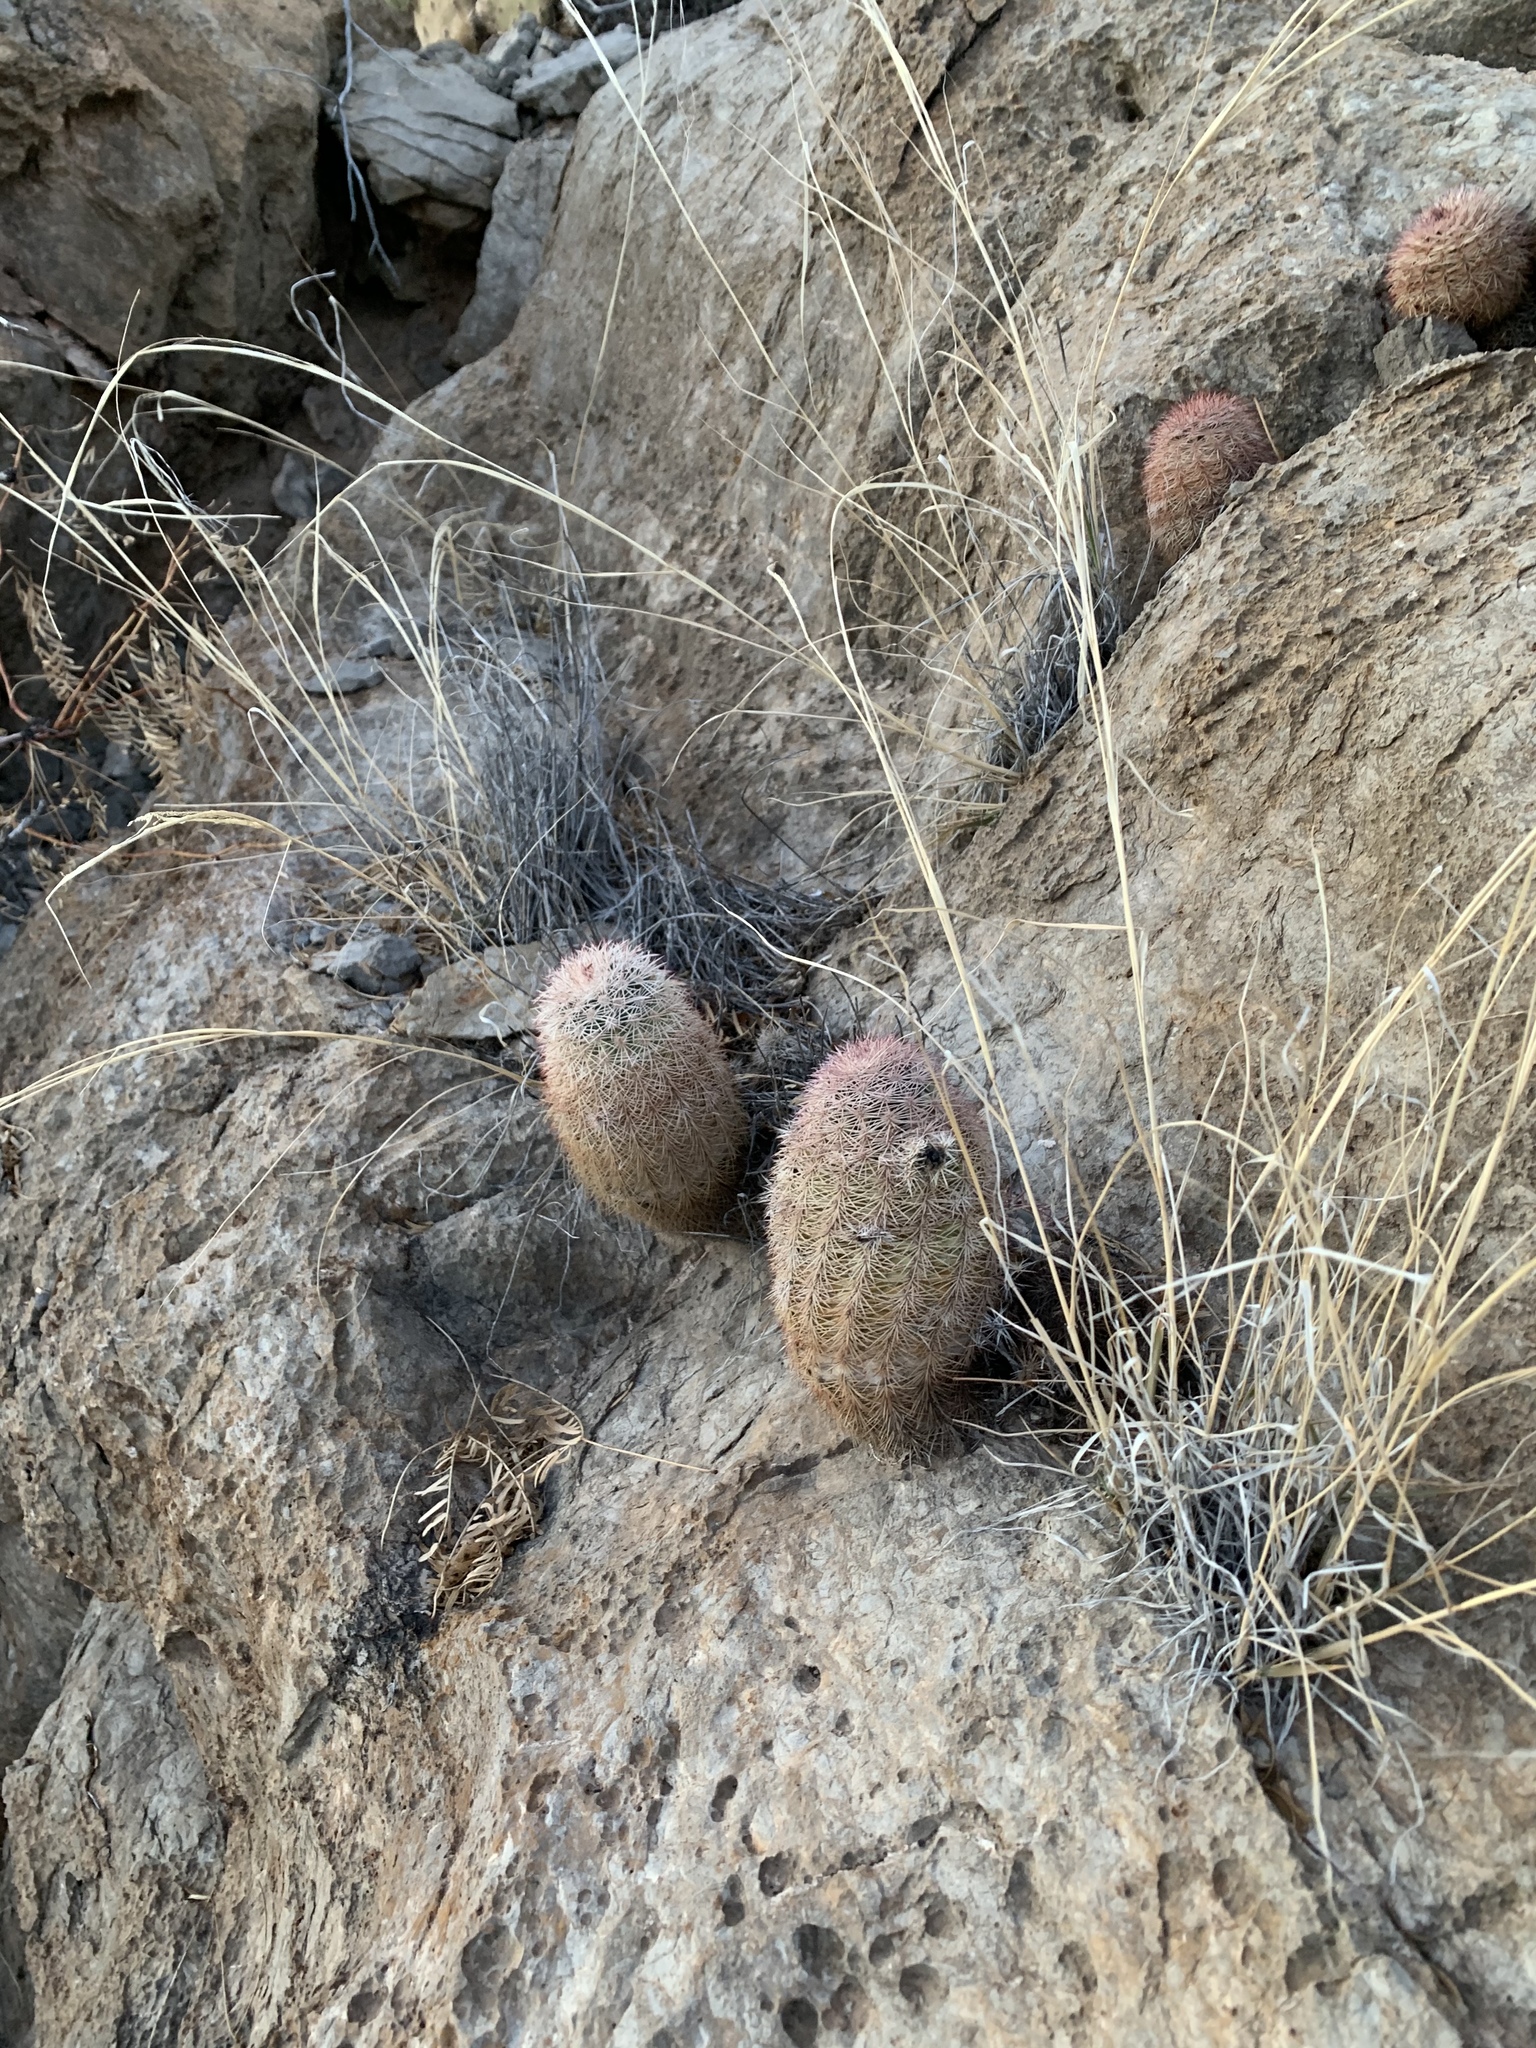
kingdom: Plantae
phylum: Tracheophyta
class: Magnoliopsida
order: Caryophyllales
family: Cactaceae
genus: Echinocereus
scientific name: Echinocereus dasyacanthus
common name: Spiny hedgehog cactus
